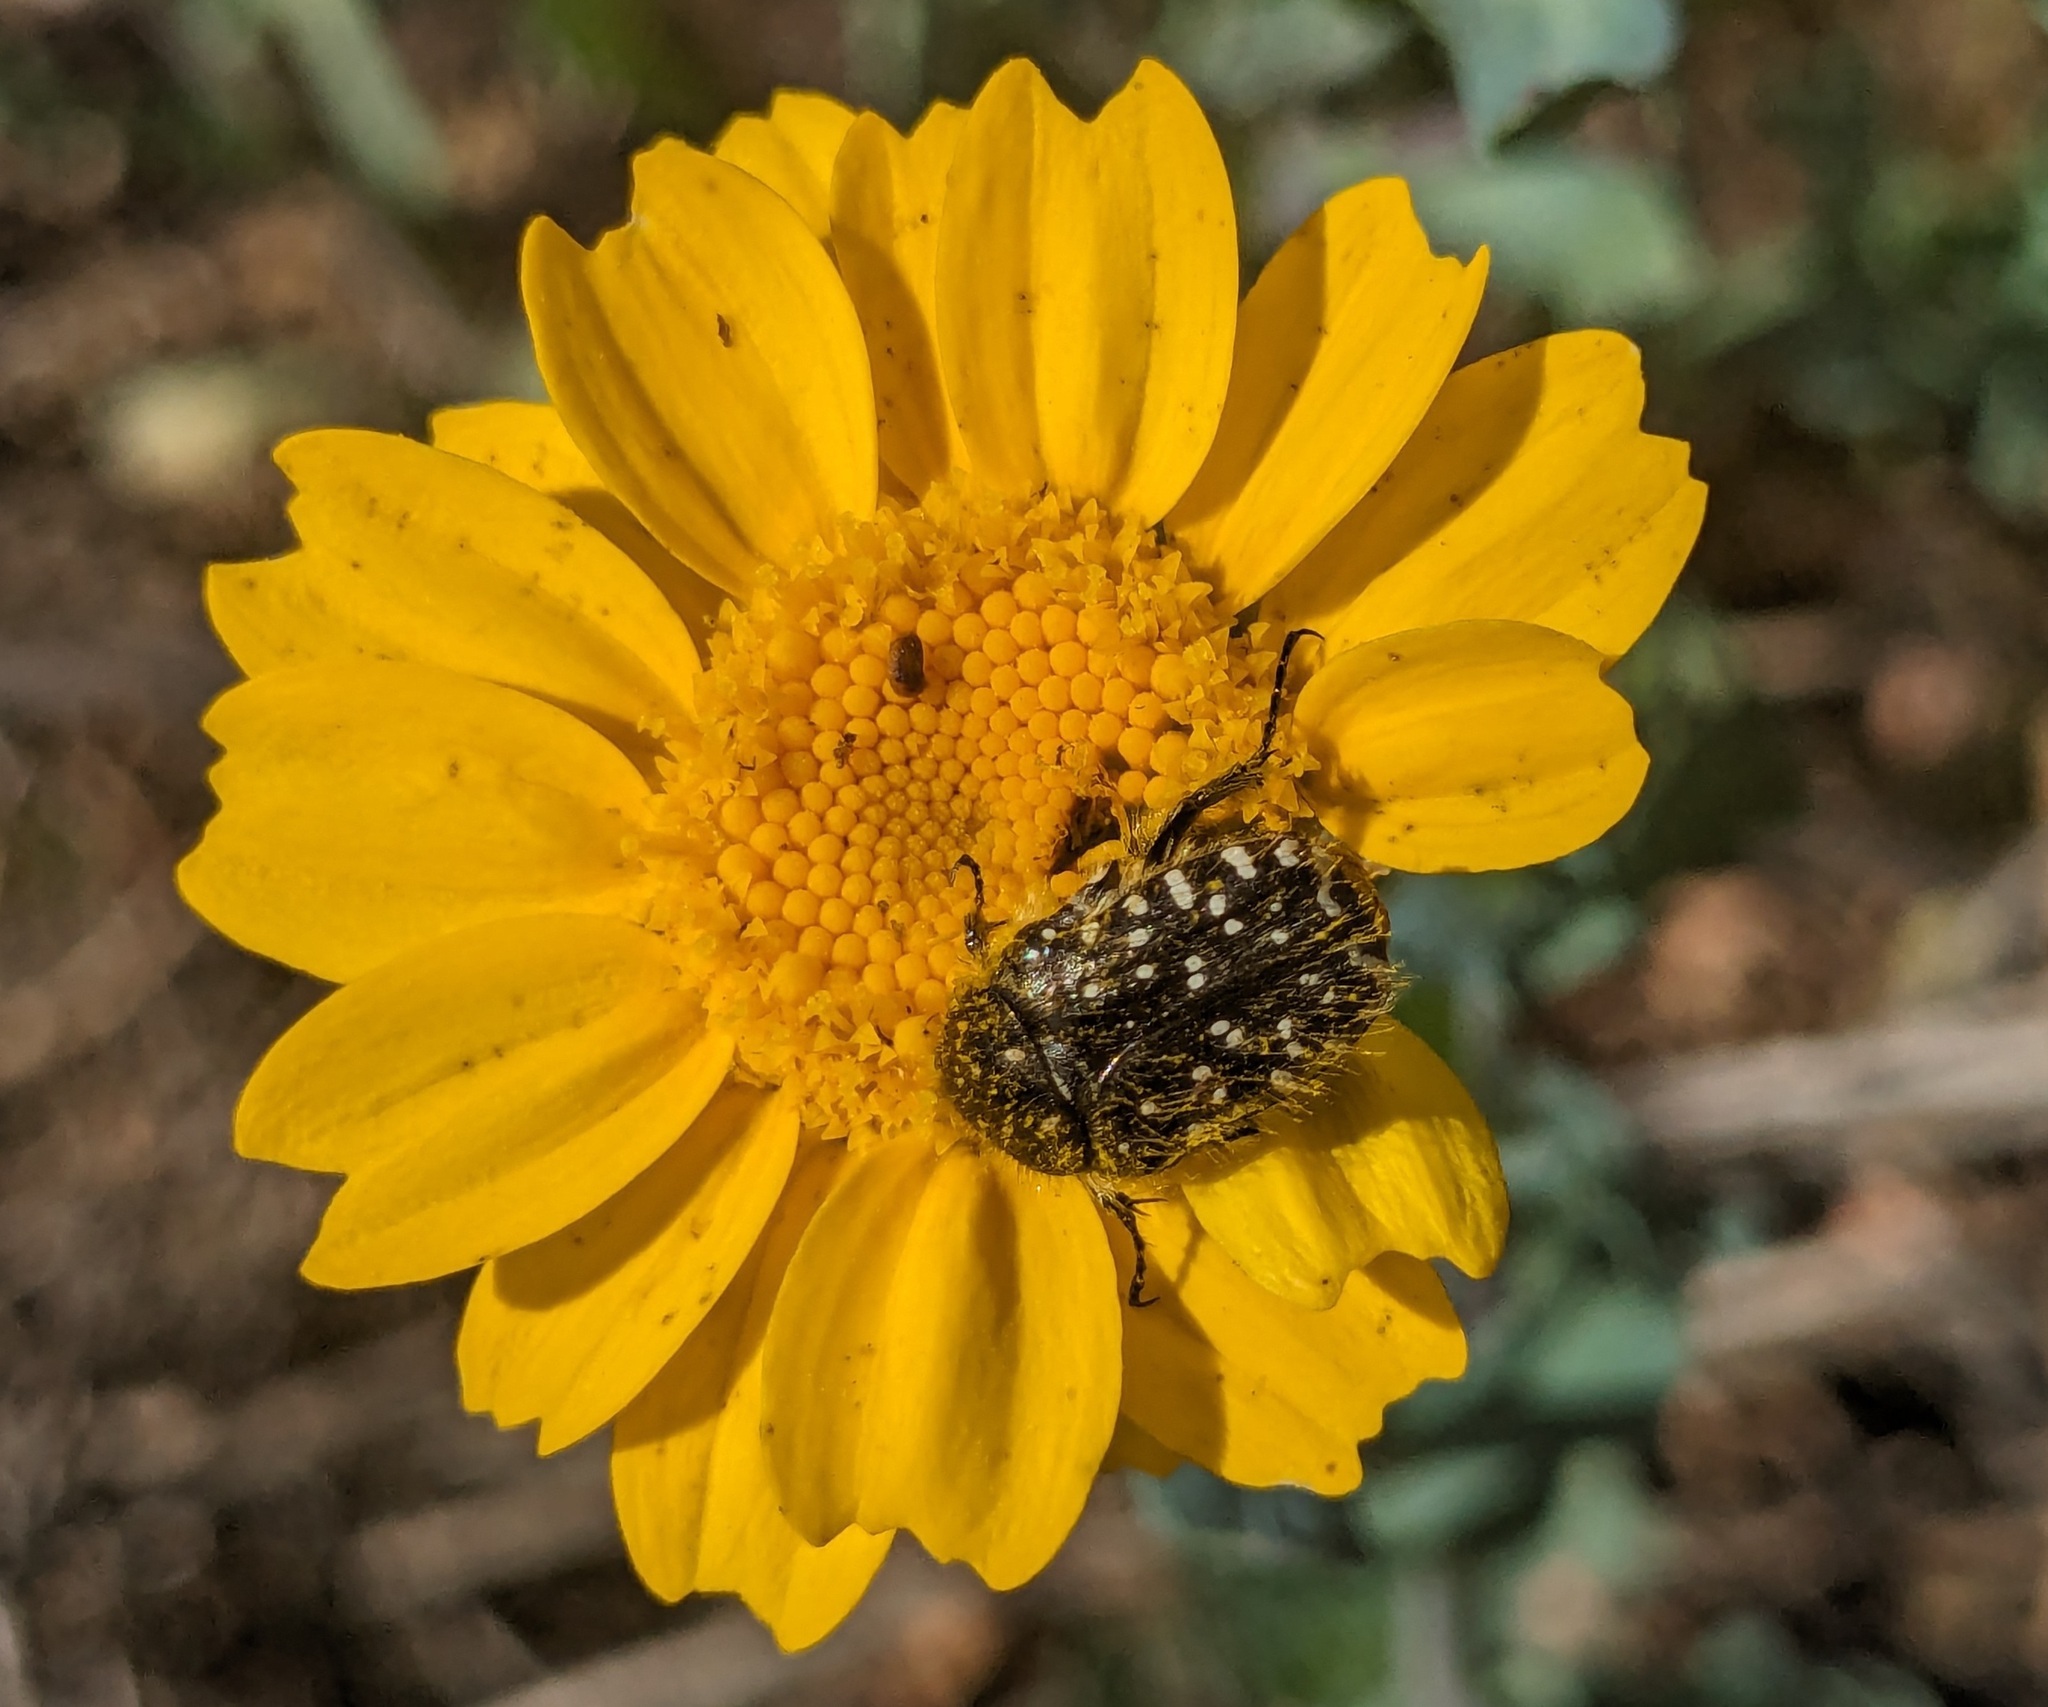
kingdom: Animalia
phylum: Arthropoda
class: Insecta
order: Coleoptera
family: Scarabaeidae
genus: Oxythyrea
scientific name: Oxythyrea funesta
